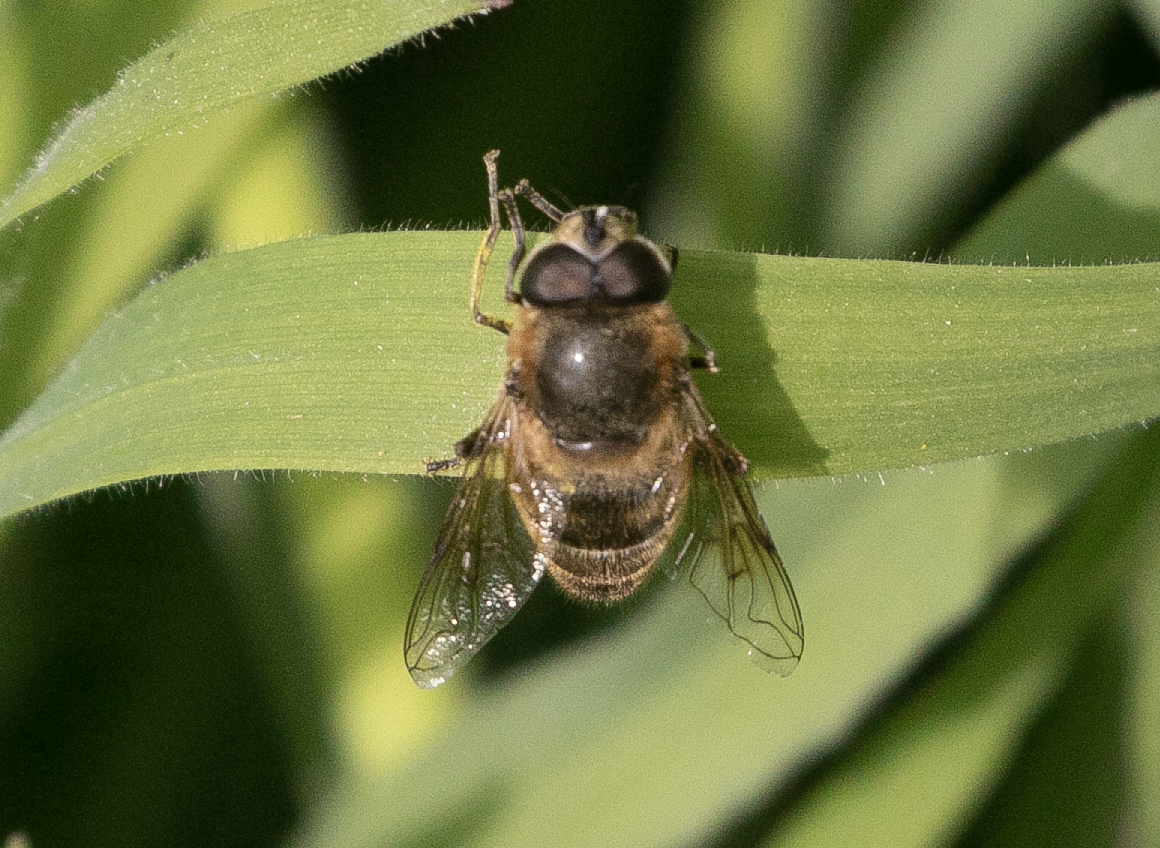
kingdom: Animalia
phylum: Arthropoda
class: Insecta
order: Diptera
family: Syrphidae
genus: Eristalis
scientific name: Eristalis tenax
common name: Drone fly
